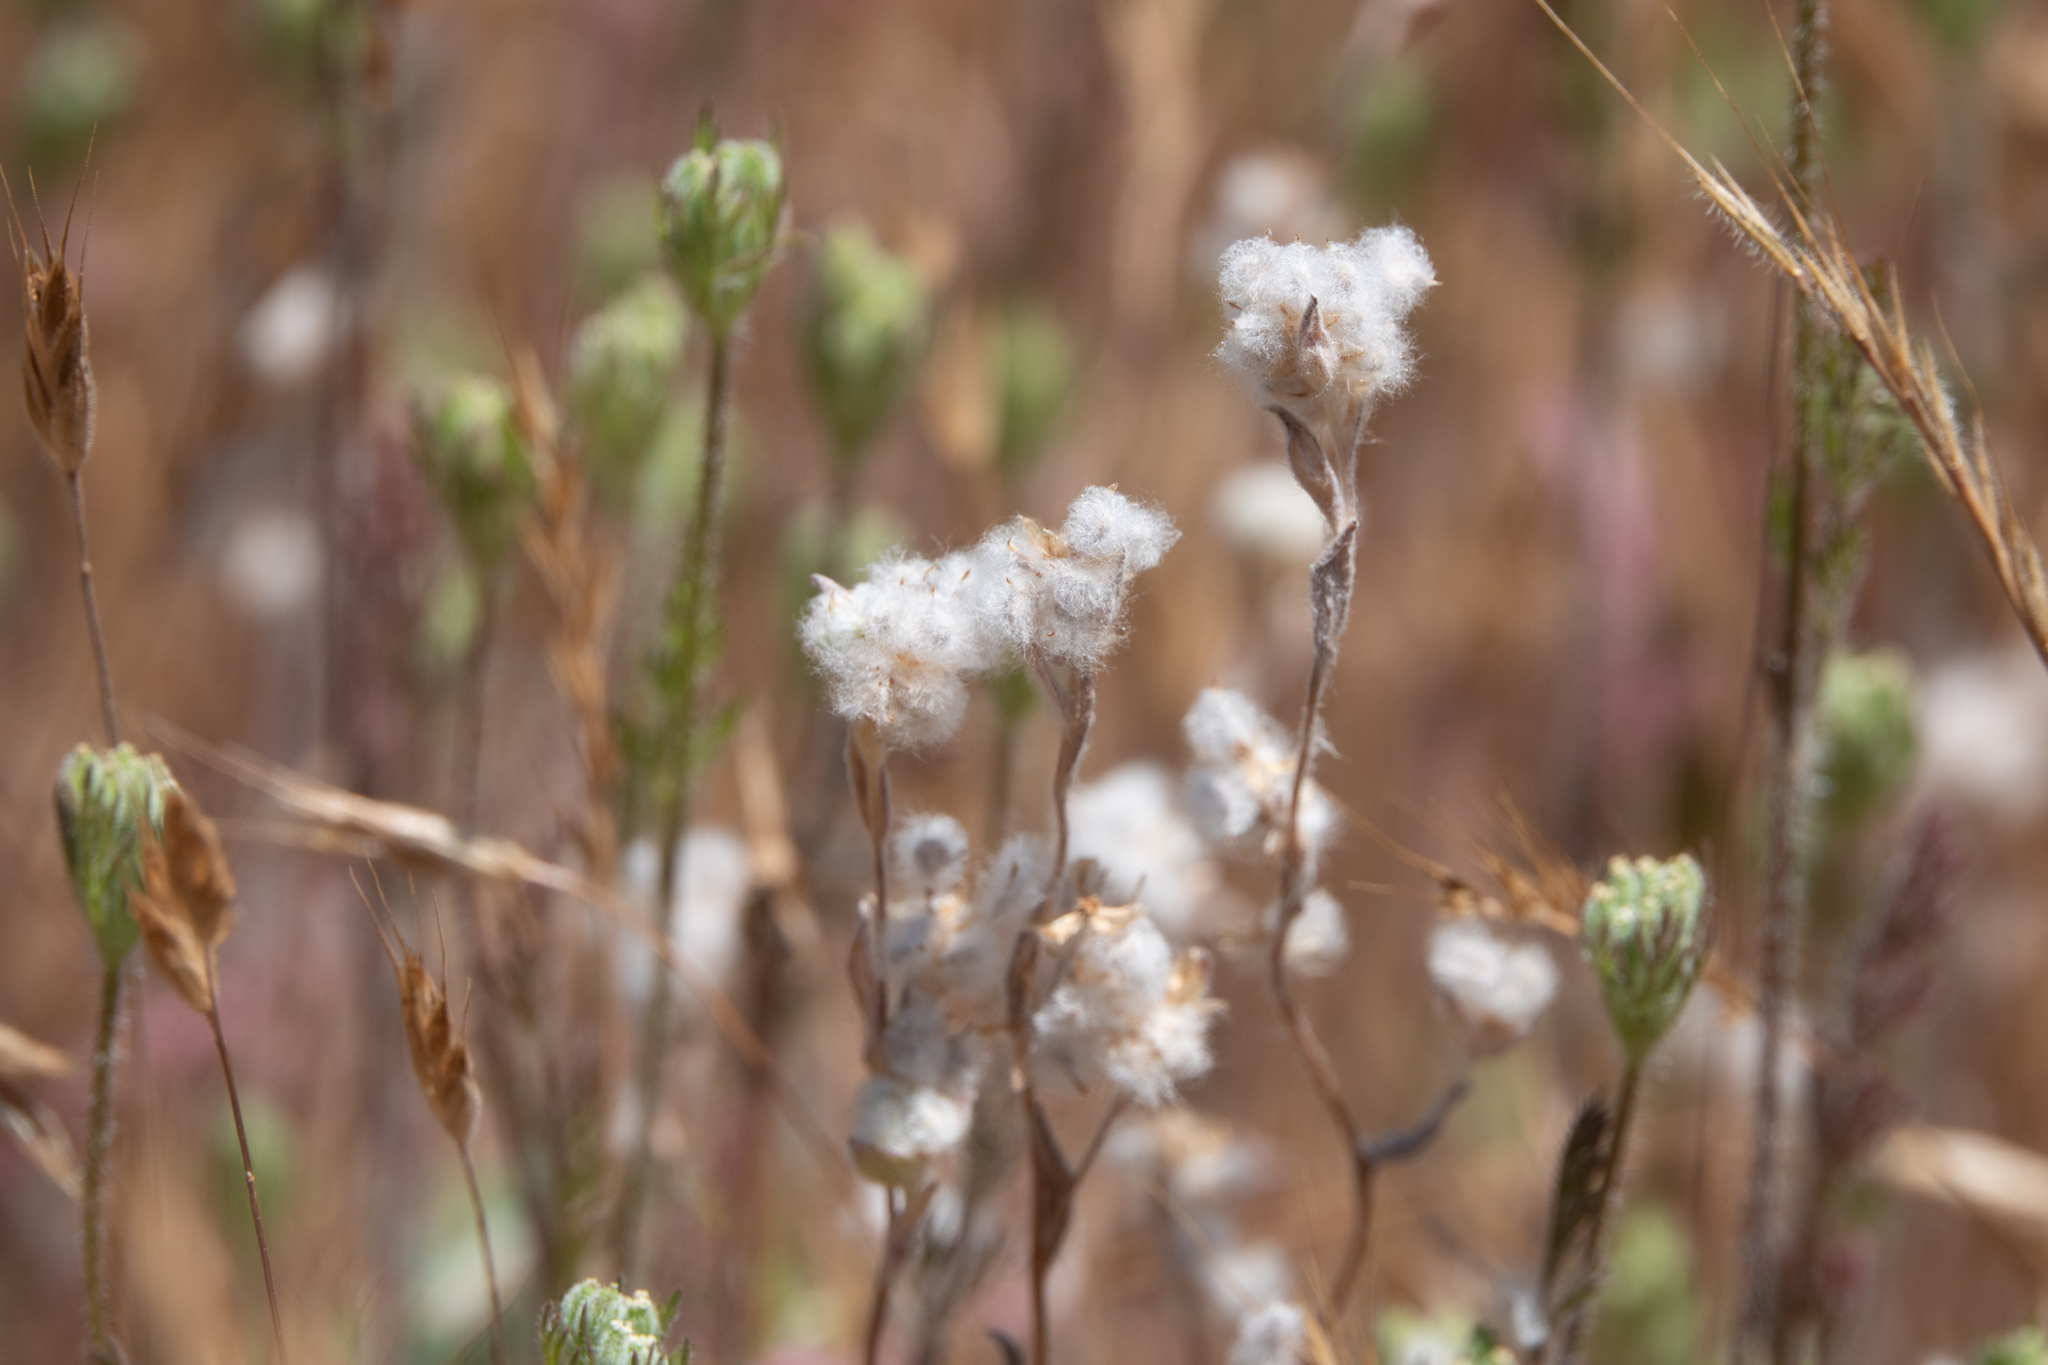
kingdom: Plantae
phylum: Tracheophyta
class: Magnoliopsida
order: Asterales
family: Asteraceae
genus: Bombycilaena
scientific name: Bombycilaena californica
